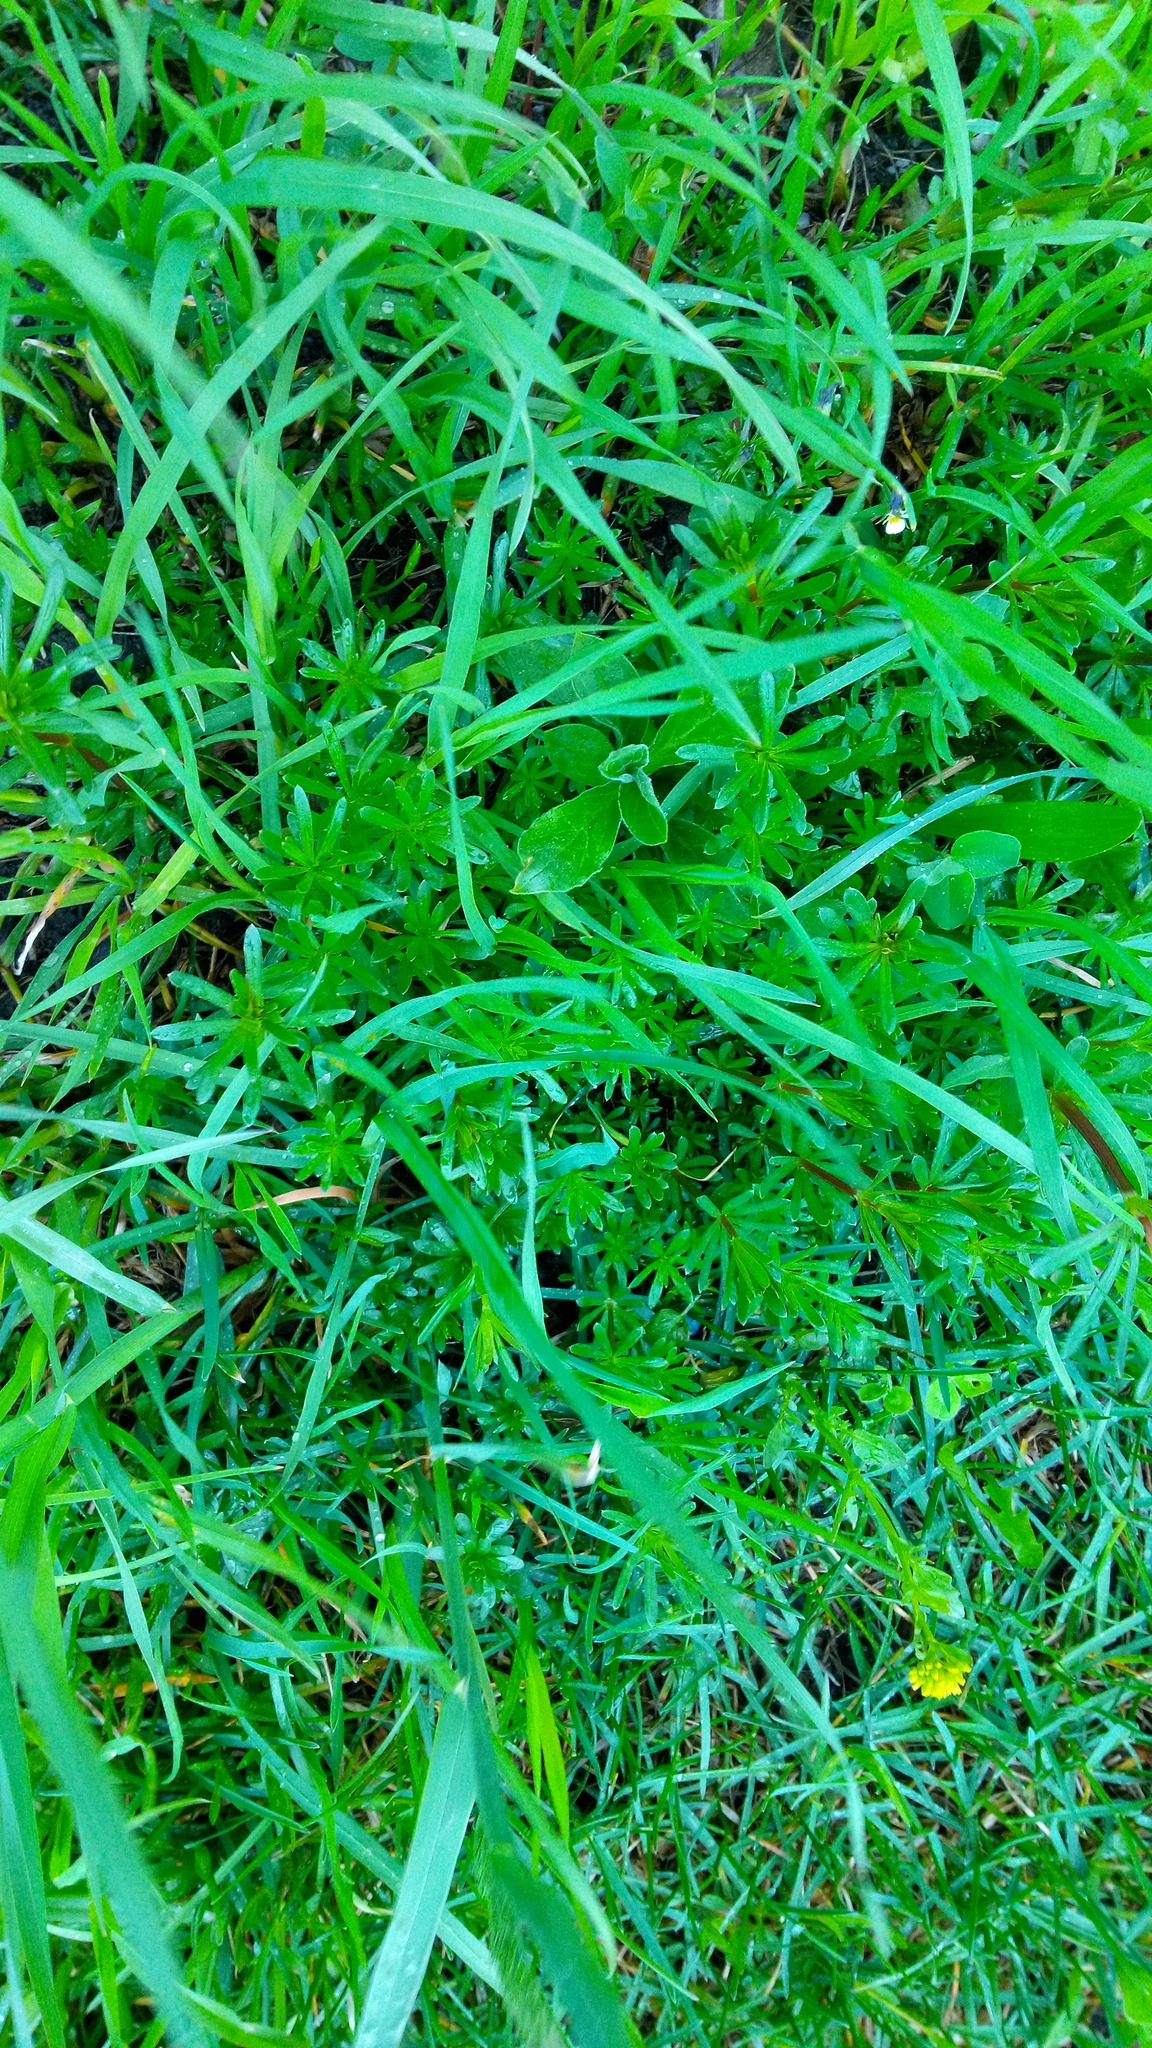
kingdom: Plantae
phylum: Tracheophyta
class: Magnoliopsida
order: Gentianales
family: Rubiaceae
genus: Galium
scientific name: Galium mollugo
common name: Hedge bedstraw
